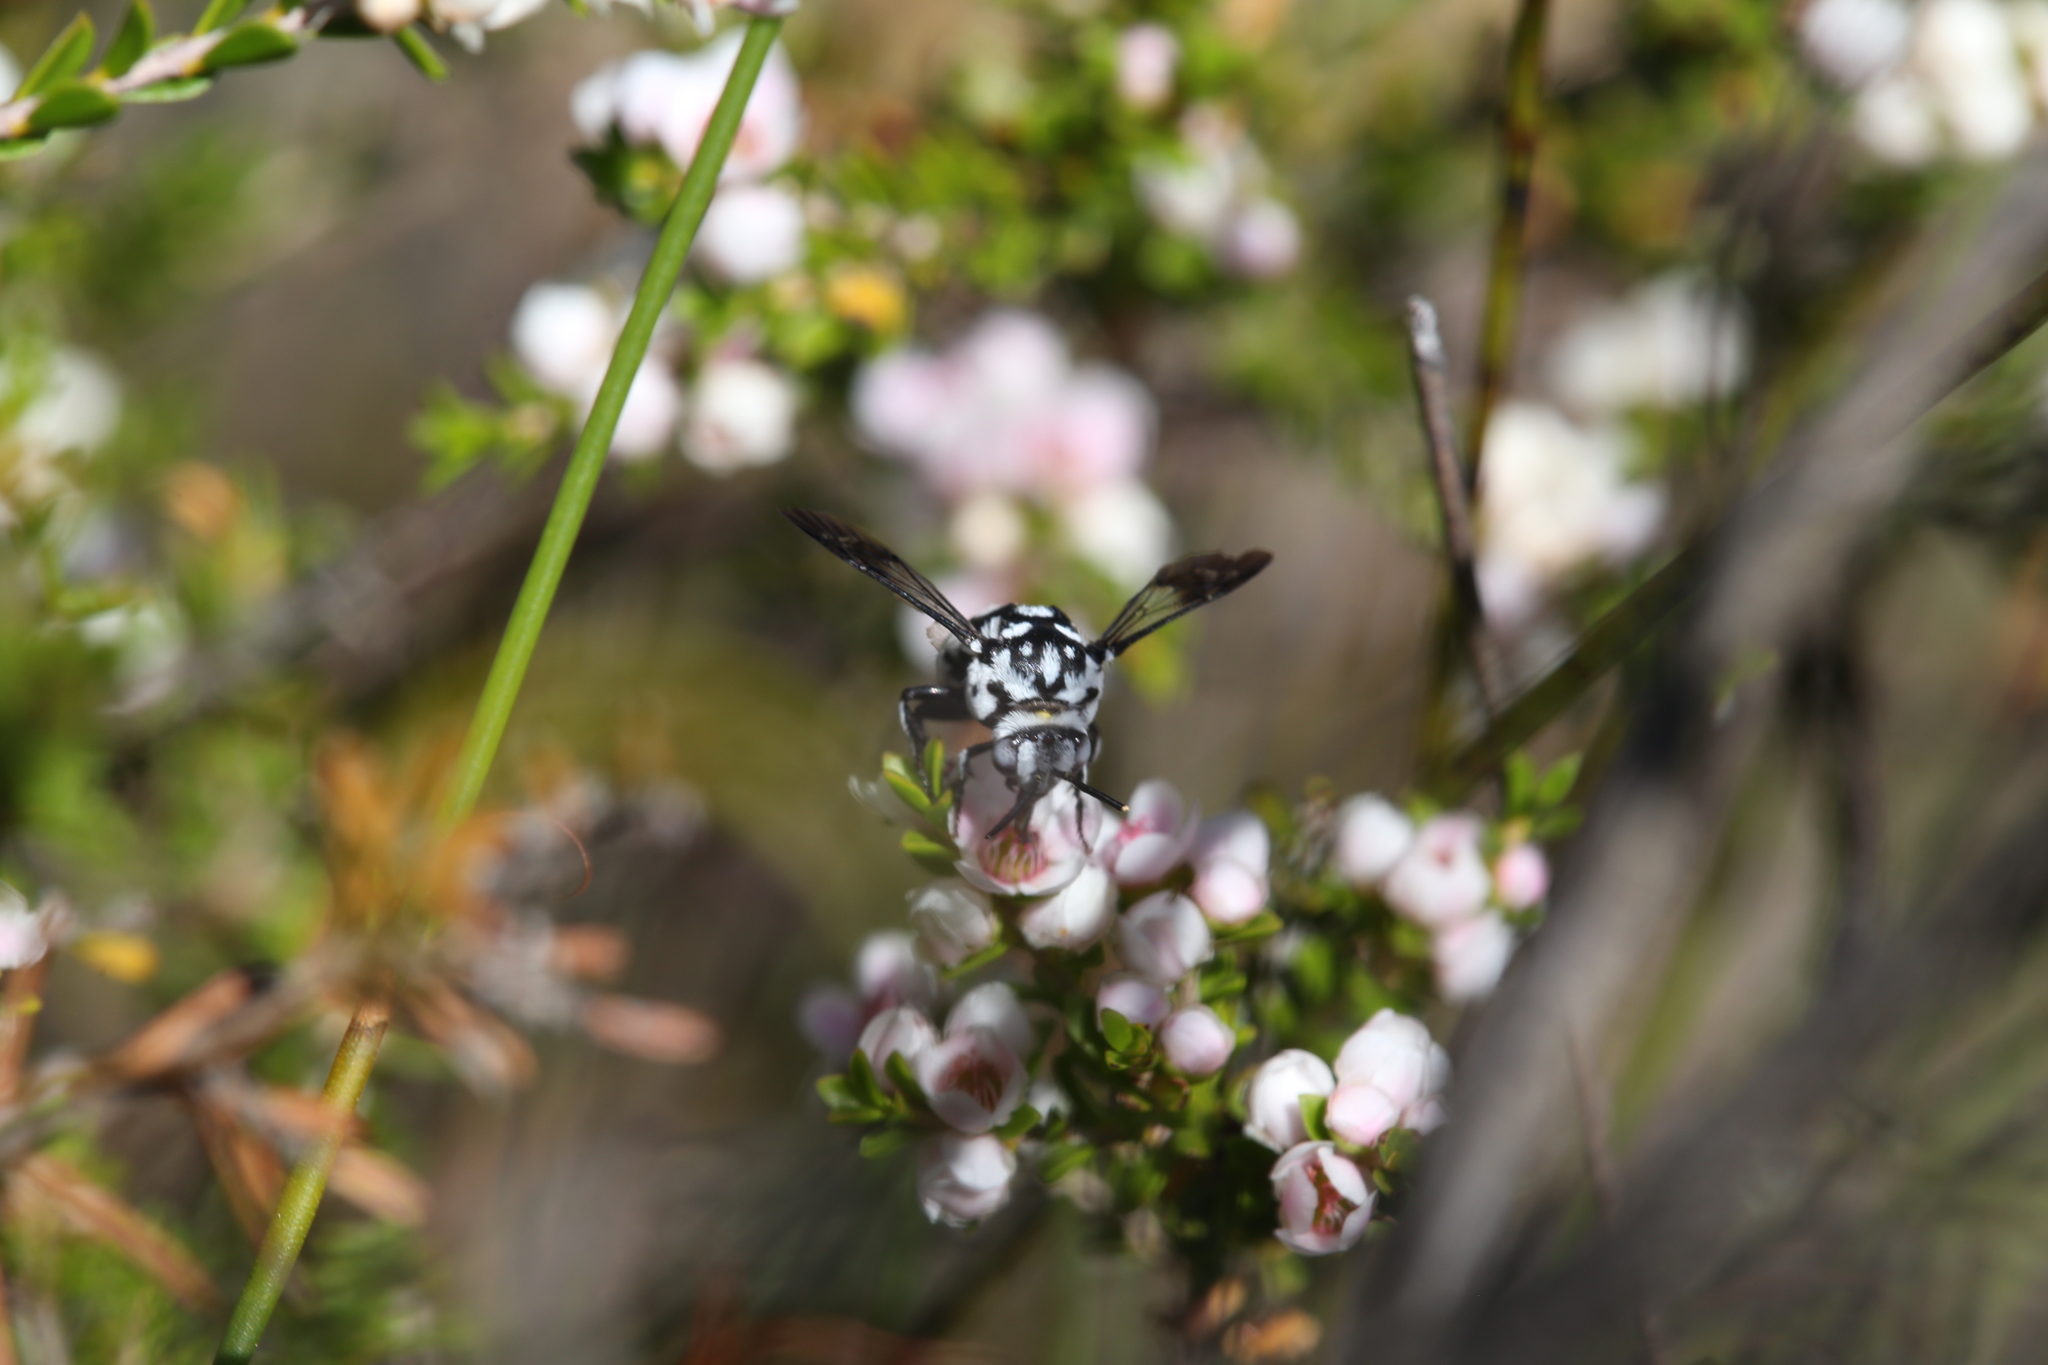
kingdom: Animalia
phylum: Arthropoda
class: Insecta
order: Hymenoptera
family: Apidae
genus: Thyreus
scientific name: Thyreus waroonensis
